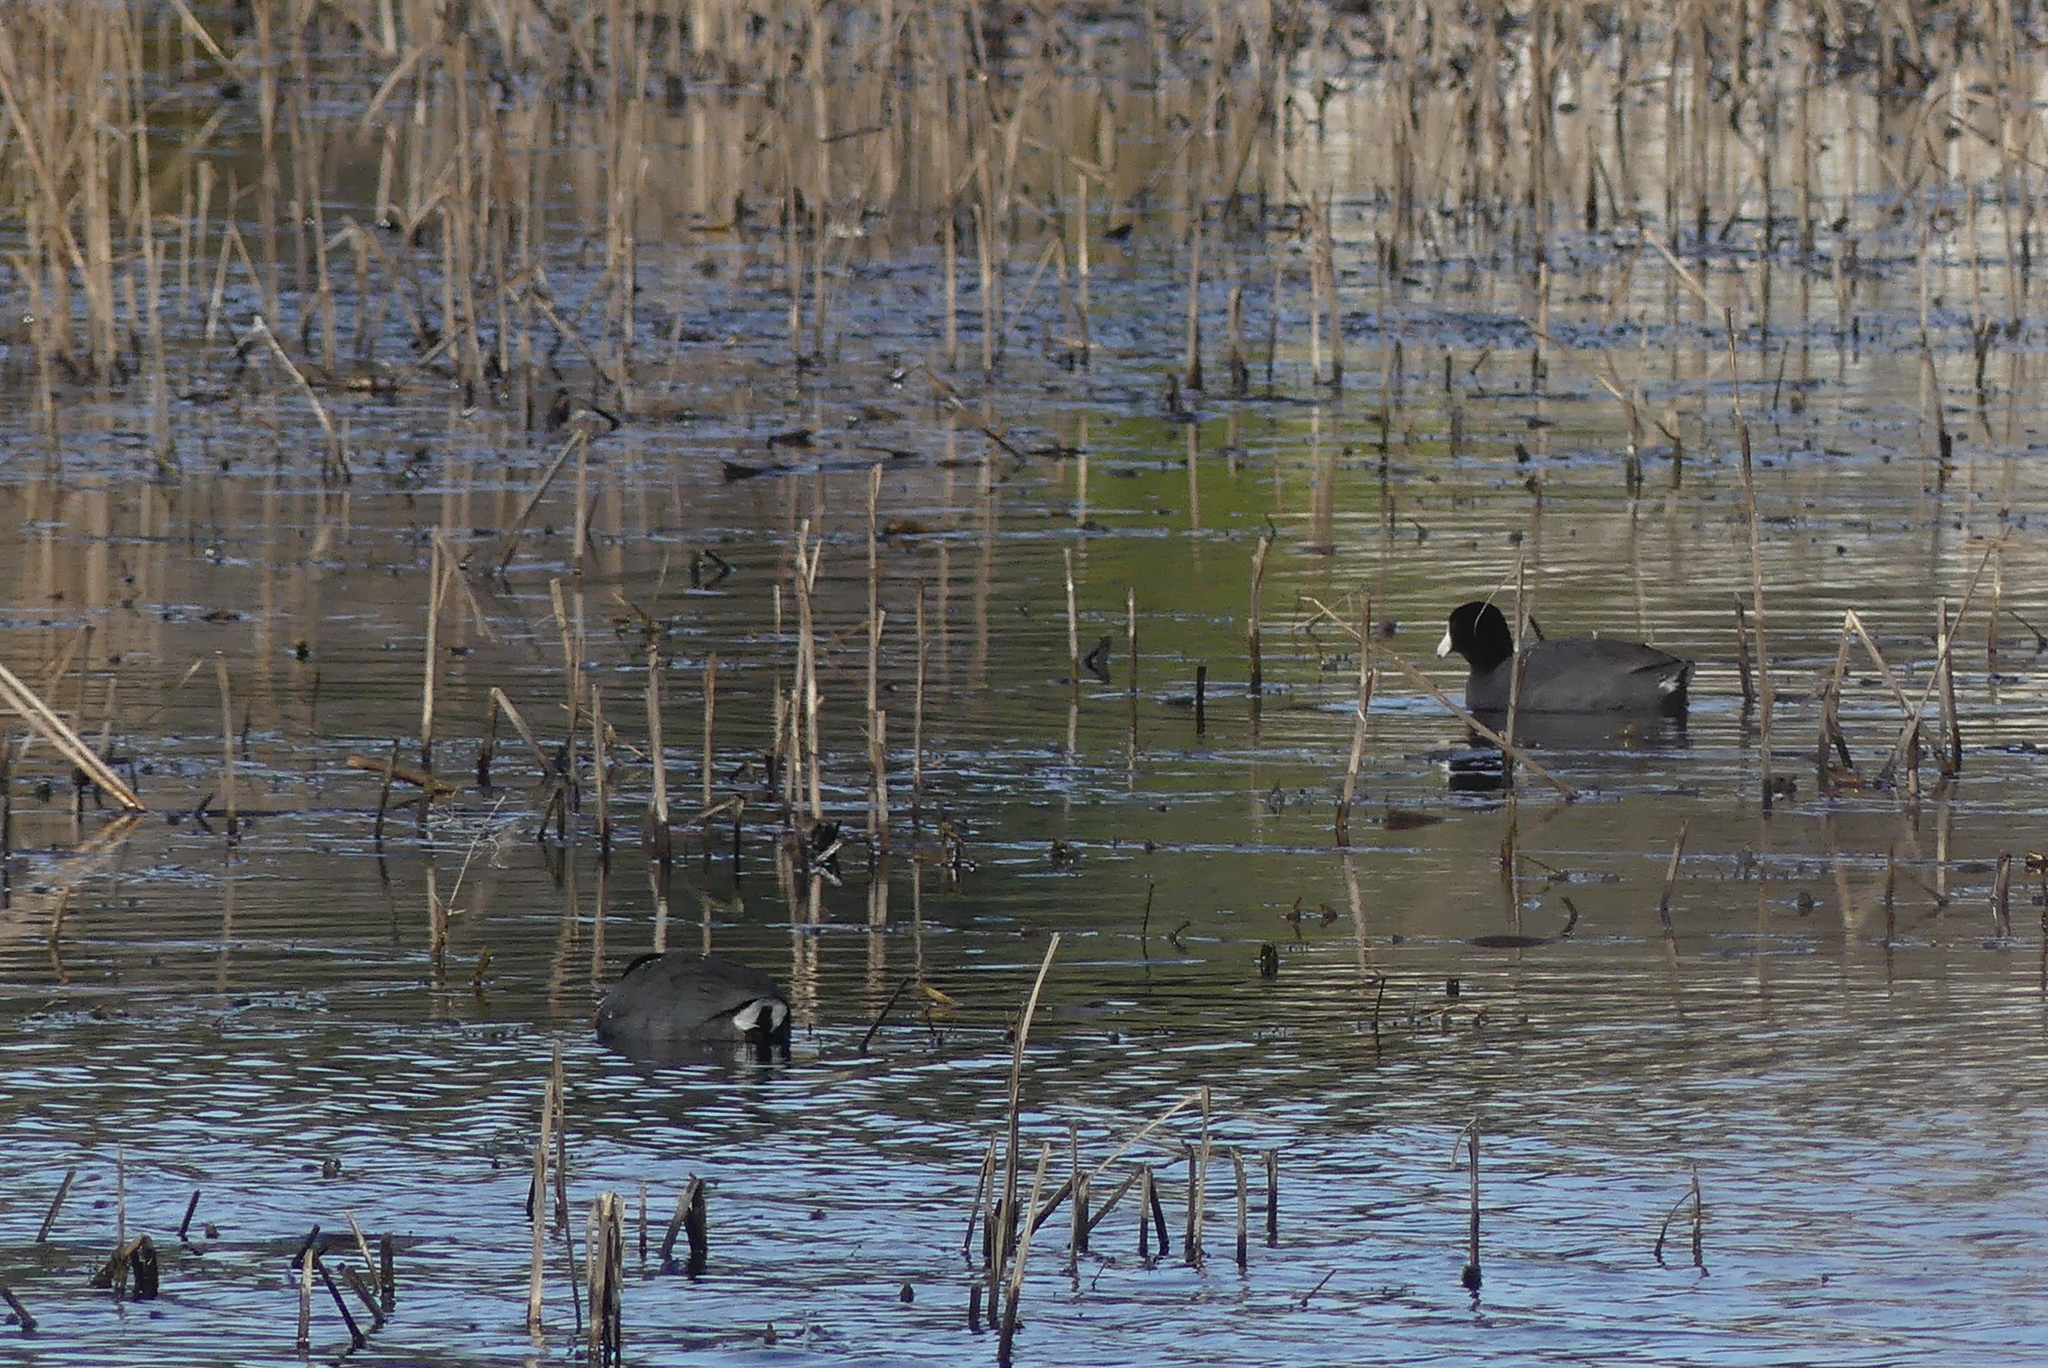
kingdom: Animalia
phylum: Chordata
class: Aves
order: Gruiformes
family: Rallidae
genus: Fulica
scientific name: Fulica americana
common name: American coot
